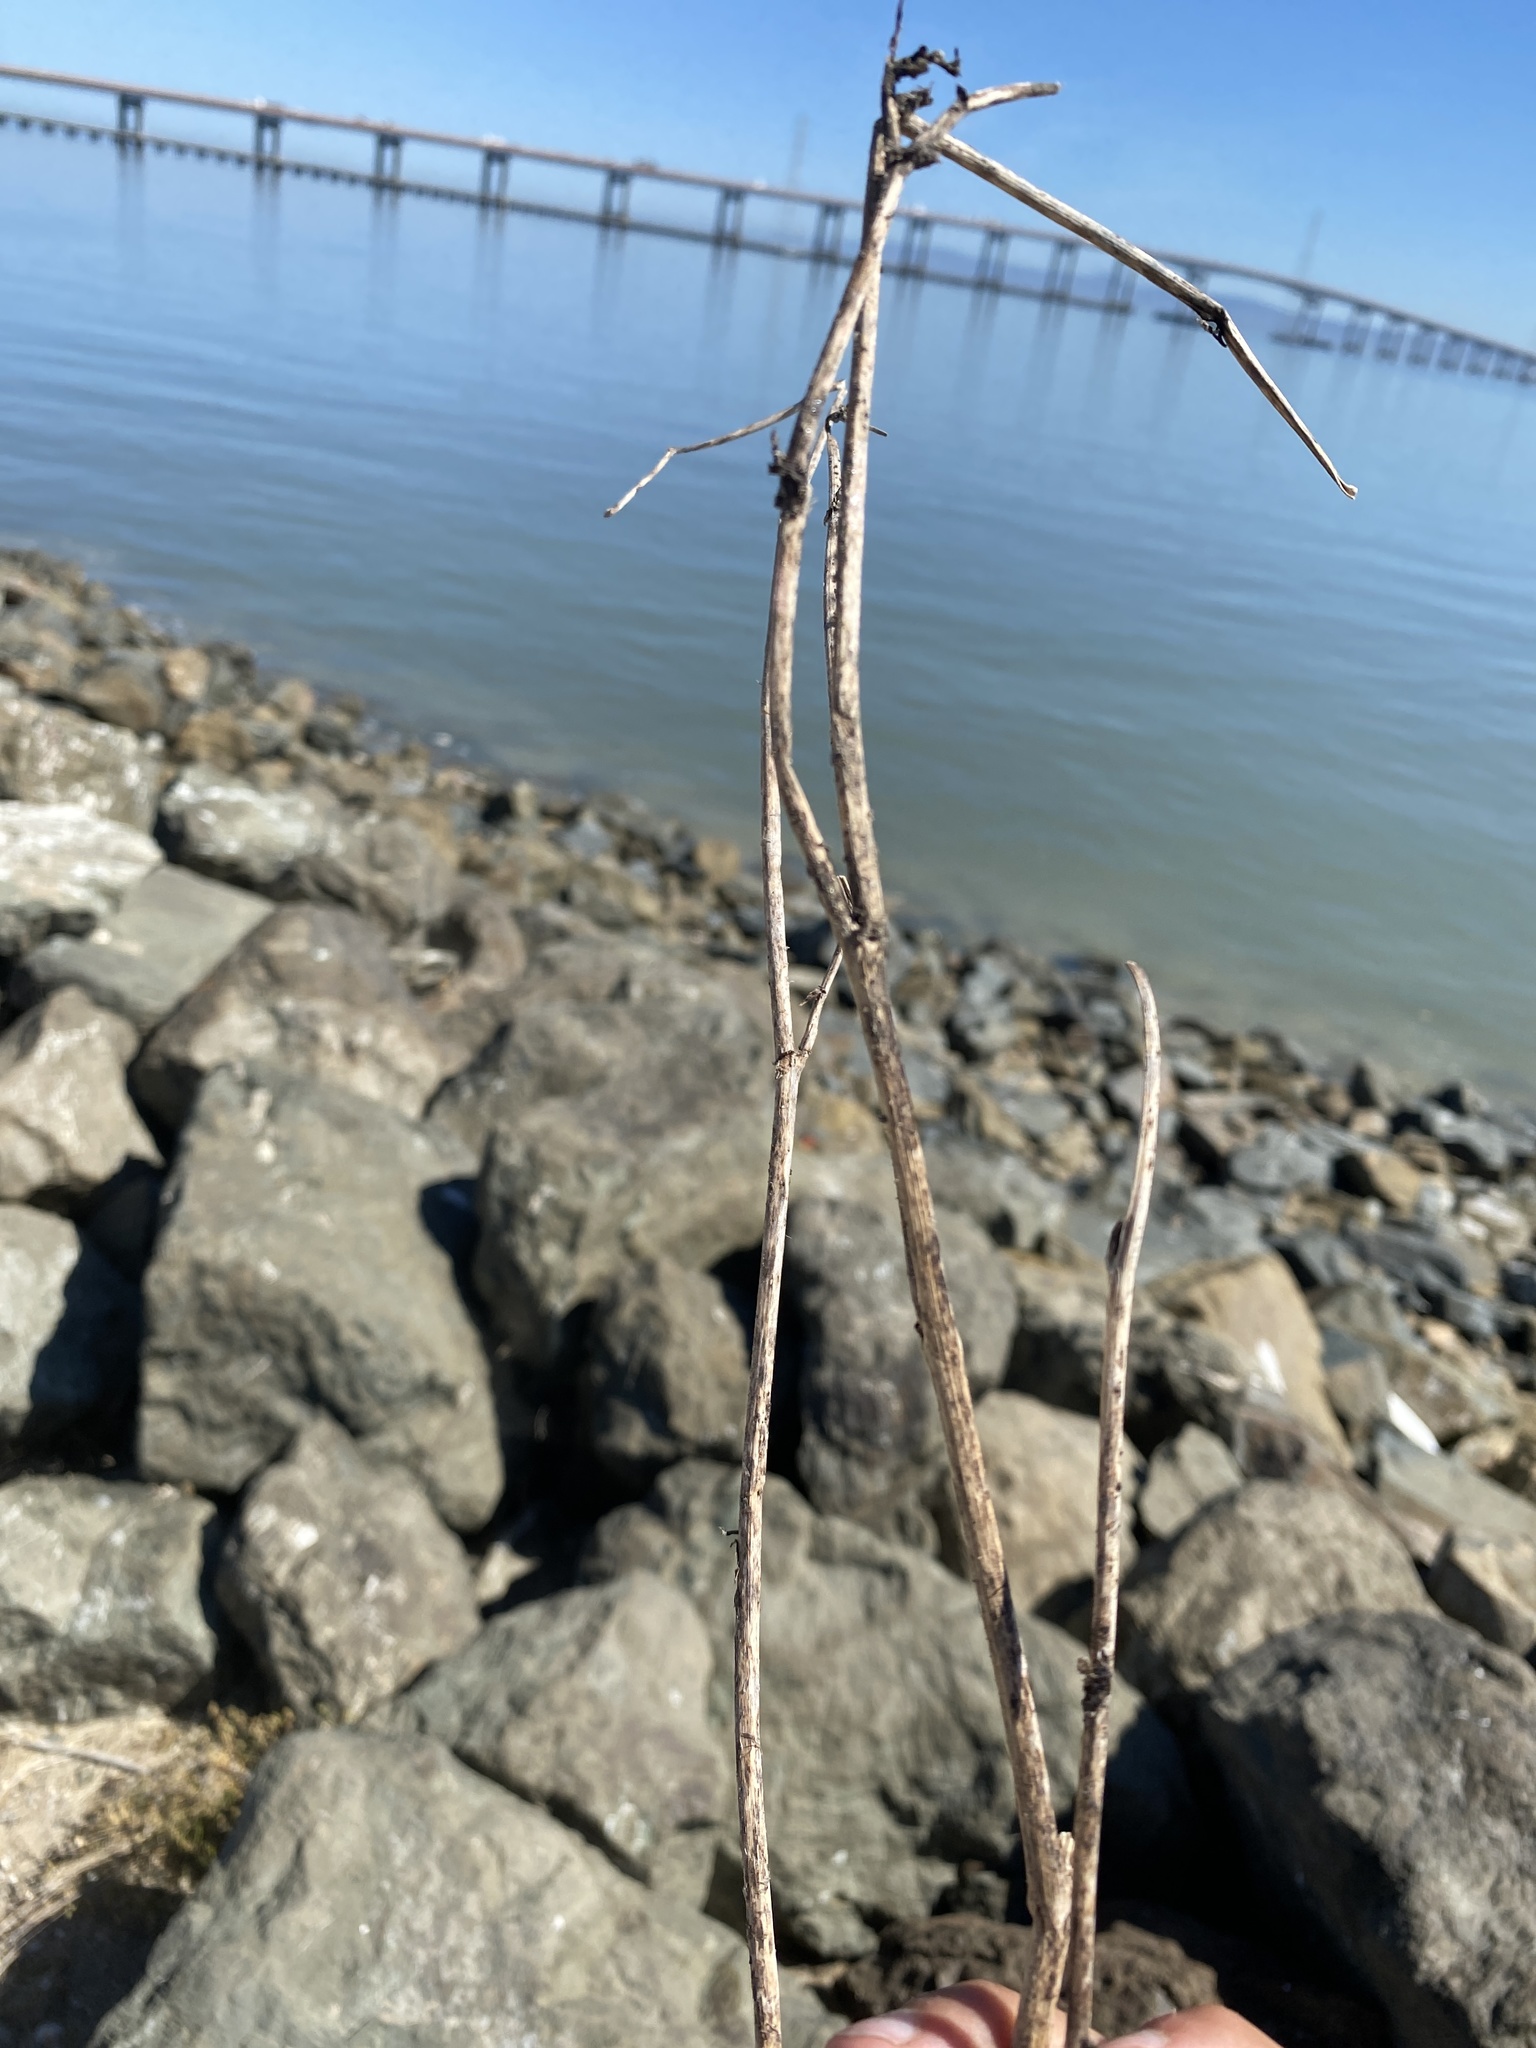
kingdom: Plantae
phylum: Tracheophyta
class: Magnoliopsida
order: Apiales
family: Apiaceae
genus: Foeniculum
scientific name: Foeniculum vulgare
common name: Fennel
